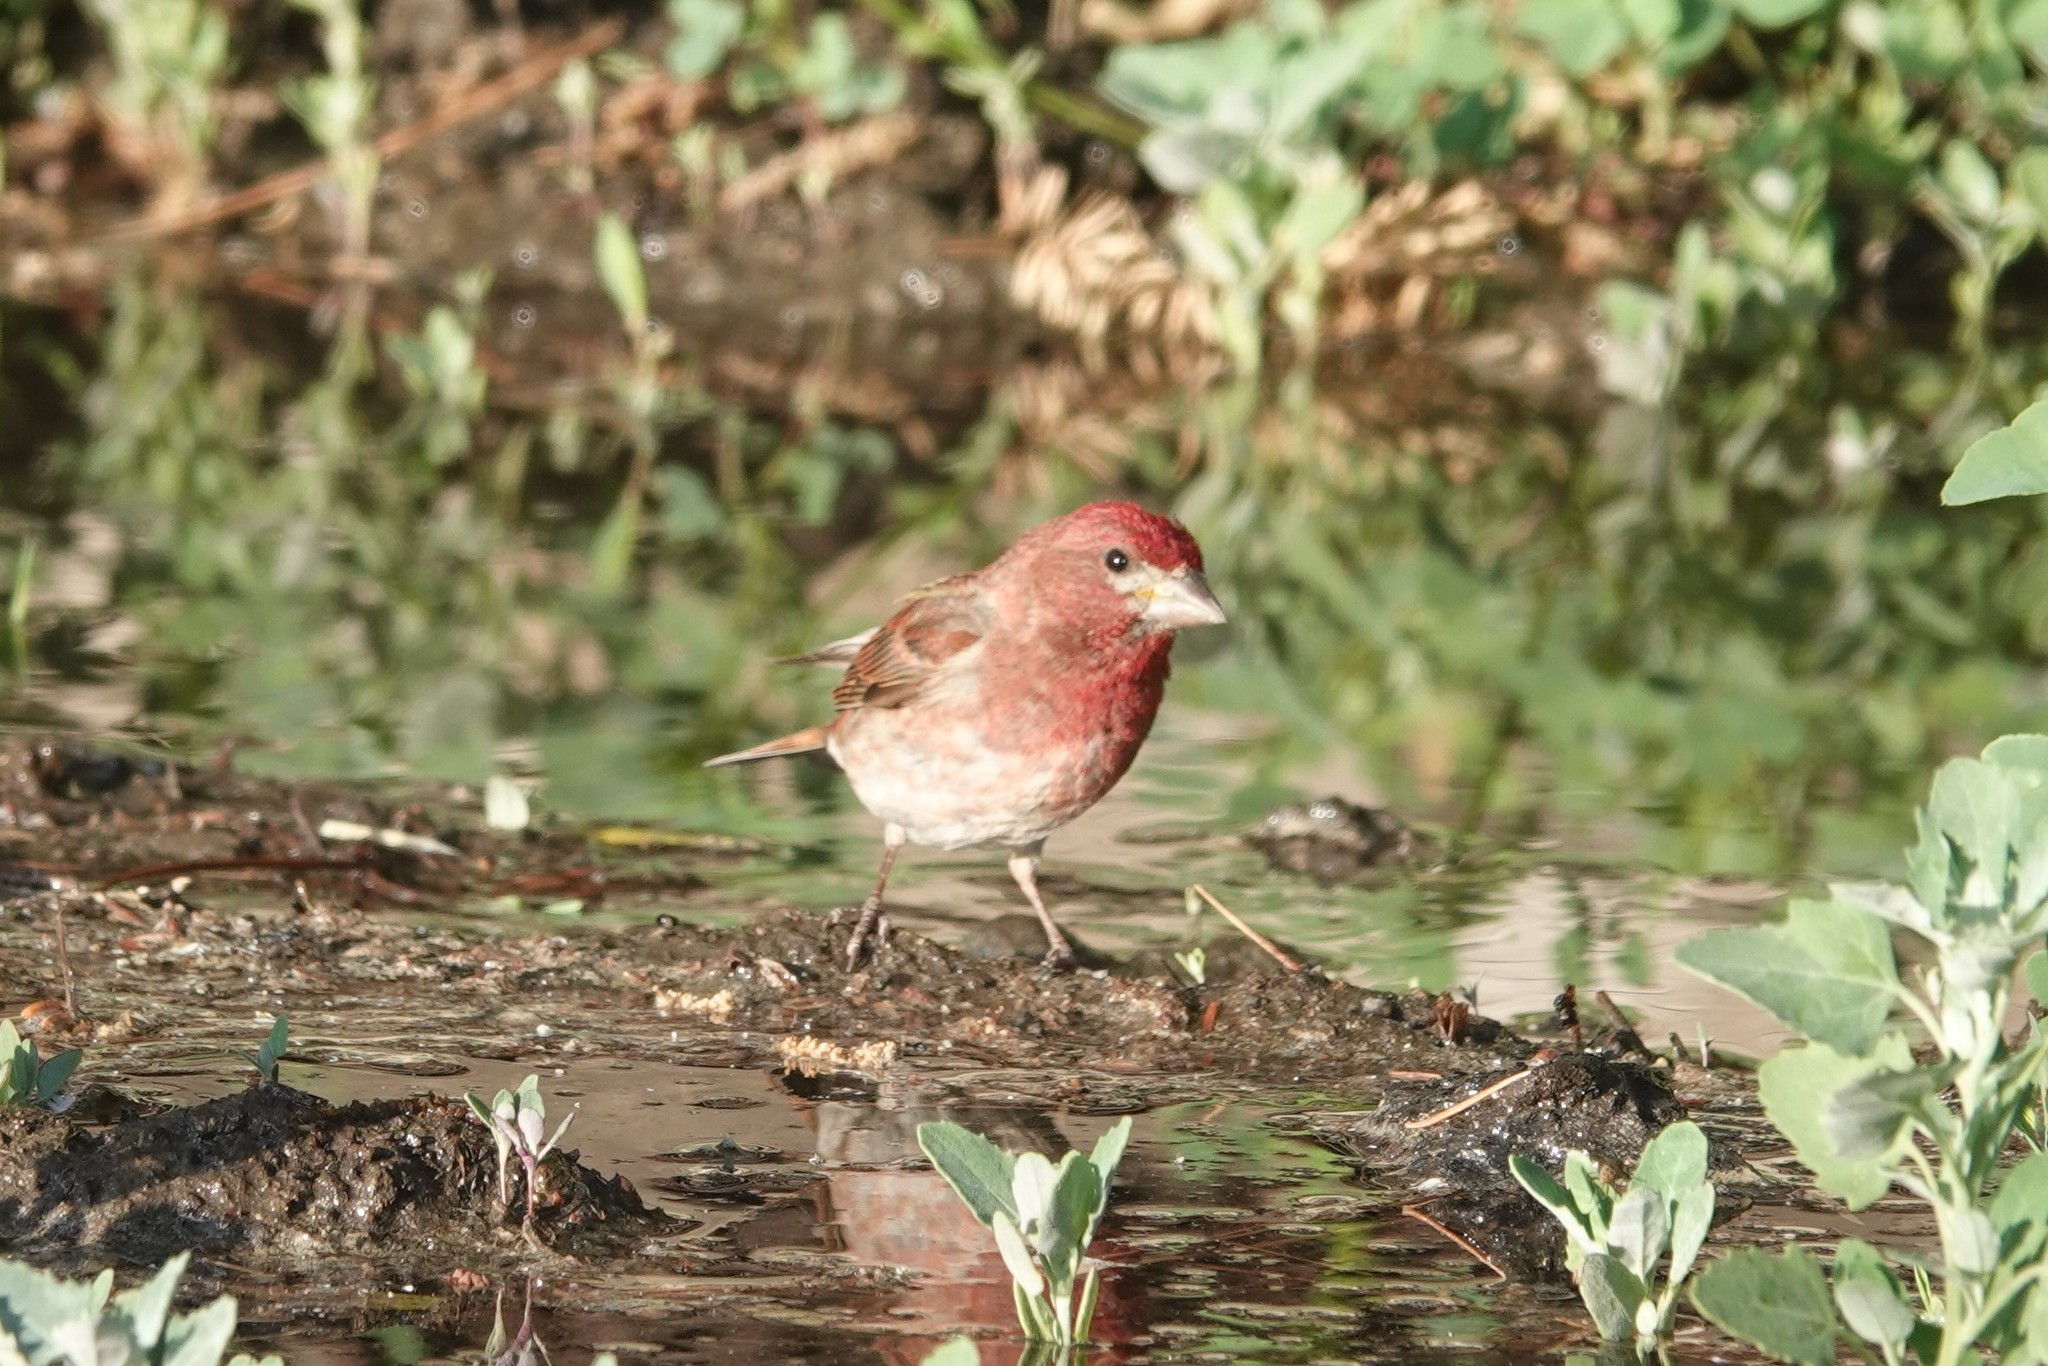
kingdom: Animalia
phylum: Chordata
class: Aves
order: Passeriformes
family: Fringillidae
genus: Haemorhous
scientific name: Haemorhous cassinii
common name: Cassin's finch
